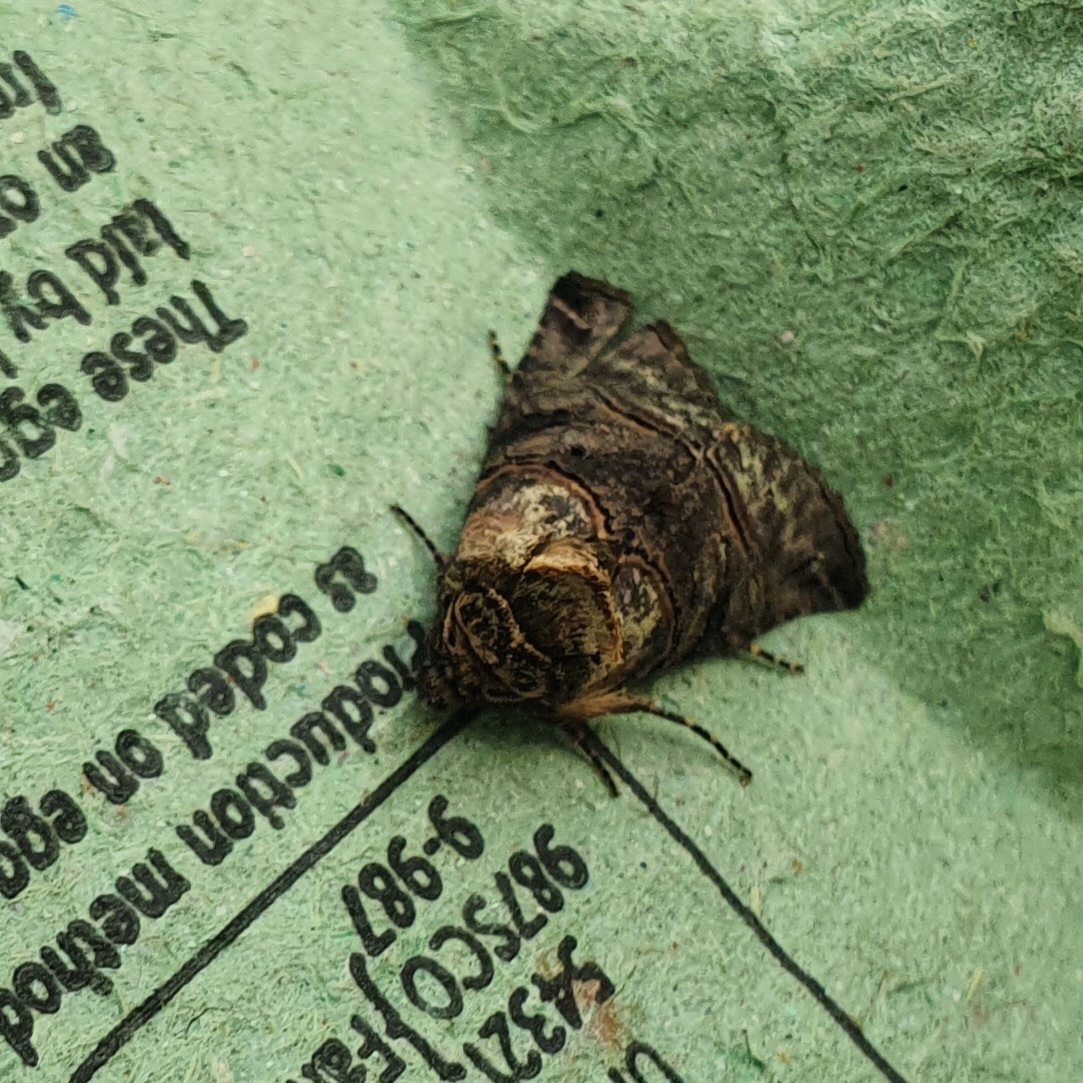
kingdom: Animalia
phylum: Arthropoda
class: Insecta
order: Lepidoptera
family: Noctuidae
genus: Abrostola
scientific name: Abrostola tripartita
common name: Spectacle
